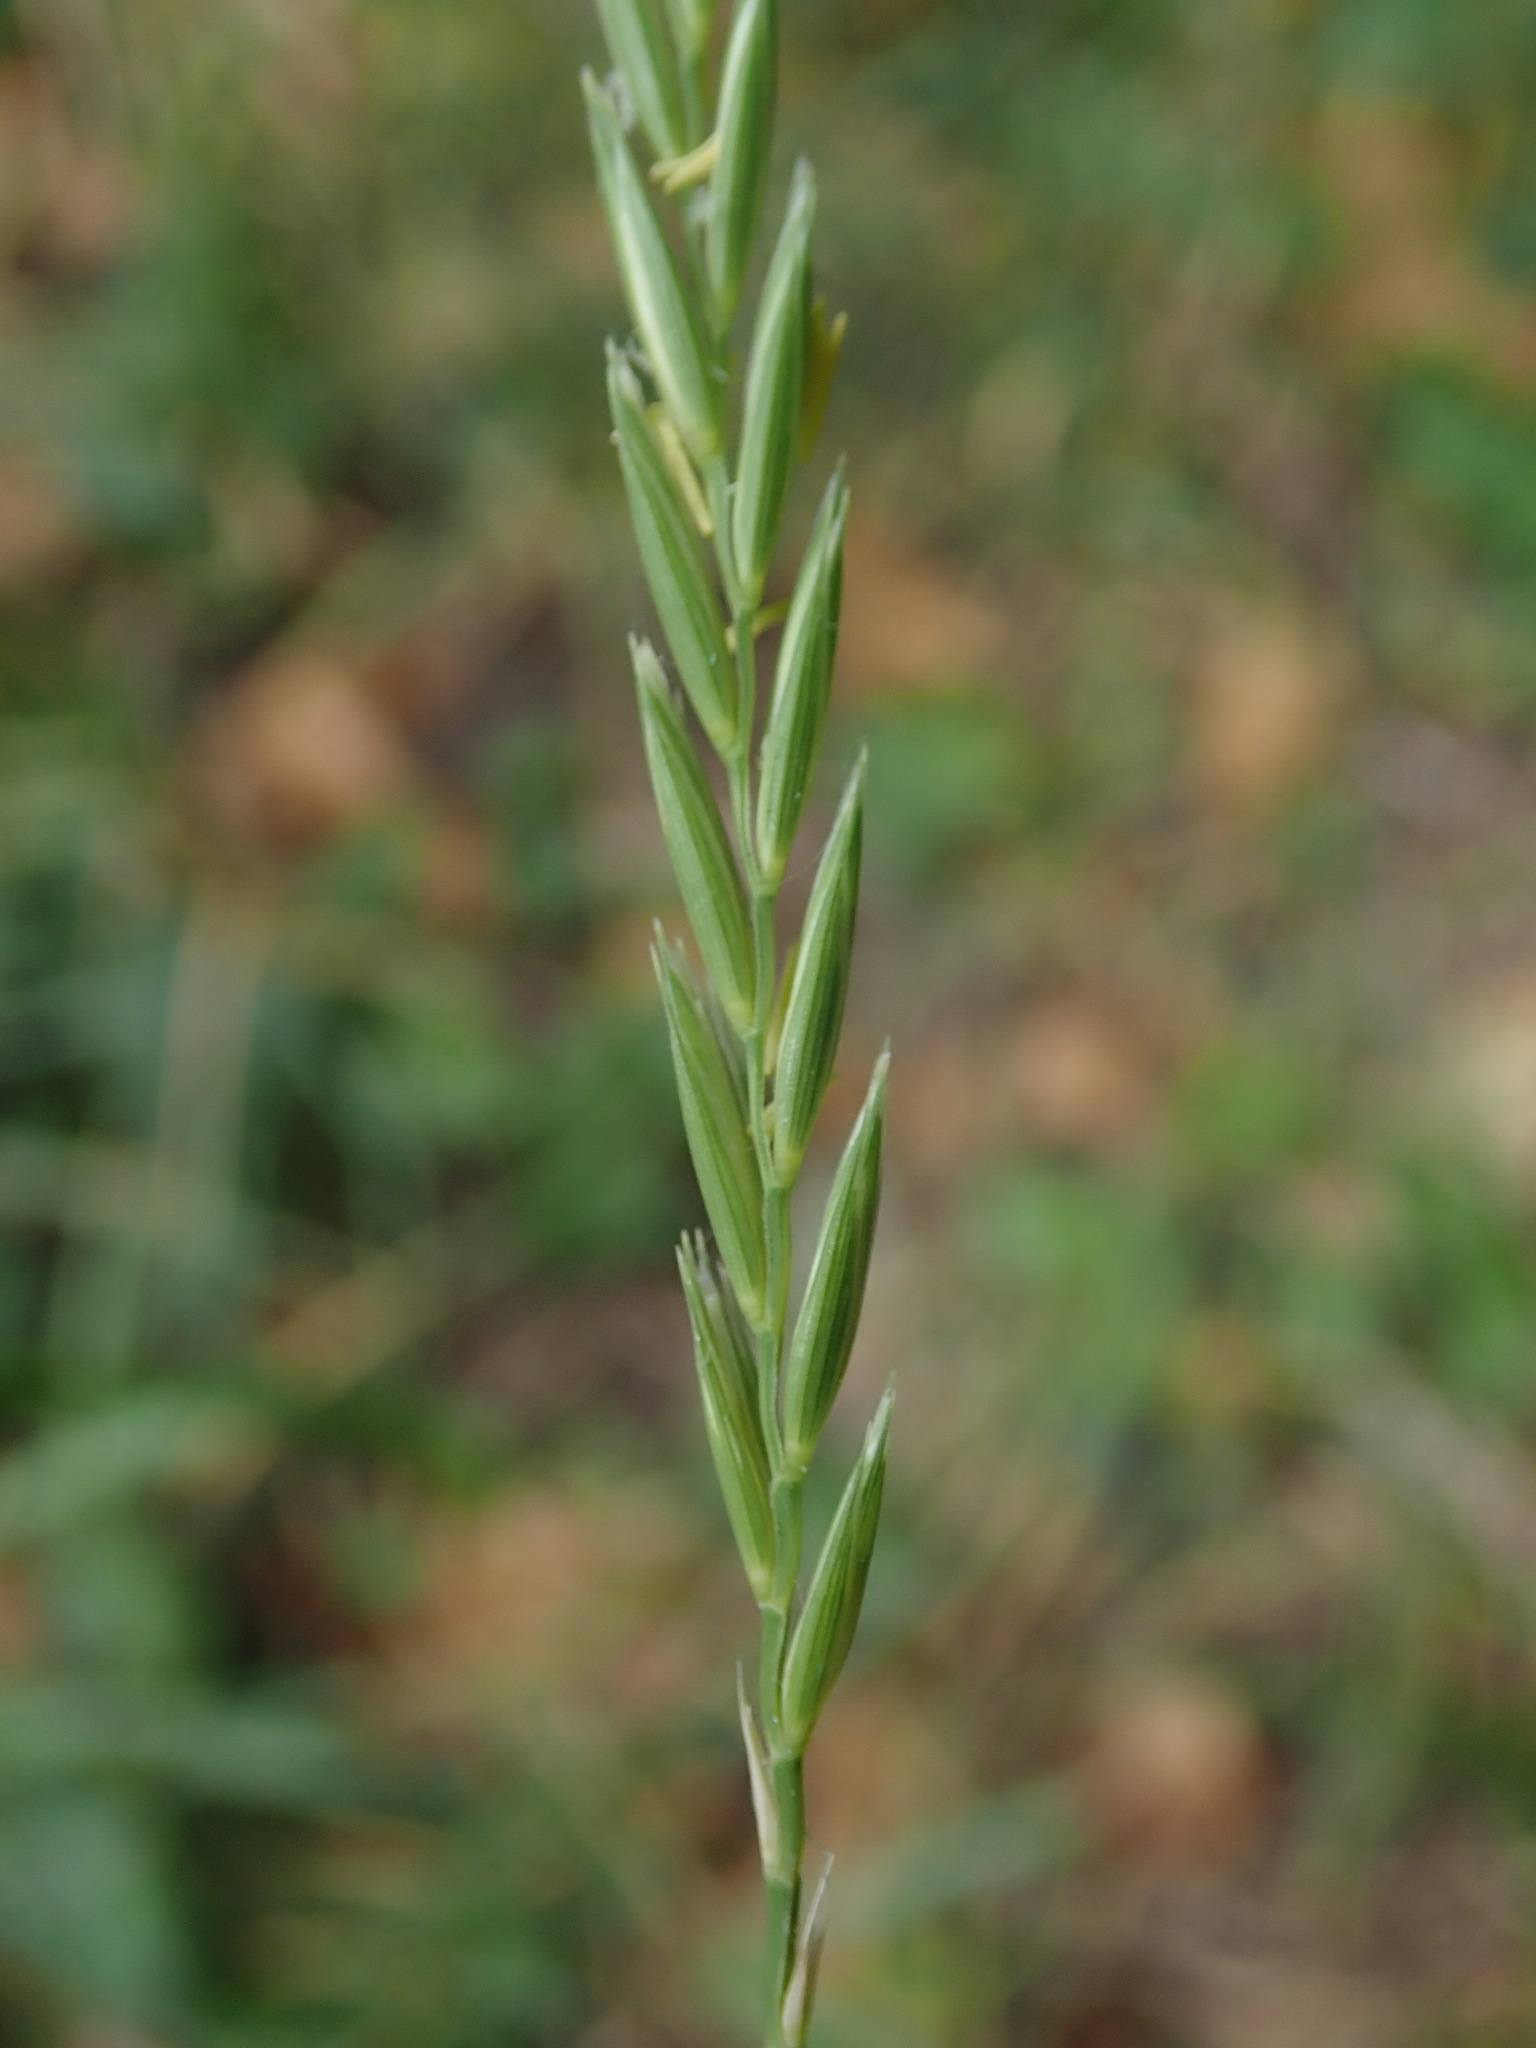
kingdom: Plantae
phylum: Tracheophyta
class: Liliopsida
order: Poales
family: Poaceae
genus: Elymus
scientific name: Elymus repens
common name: Quackgrass
